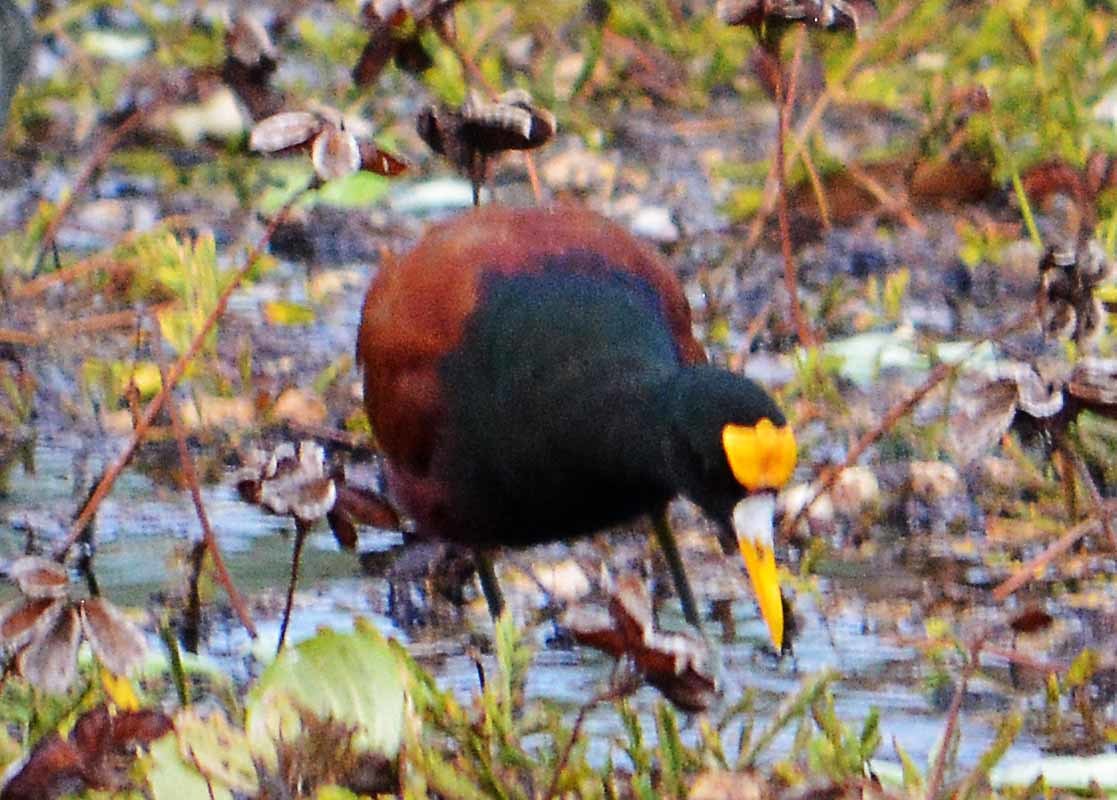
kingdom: Animalia
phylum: Chordata
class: Aves
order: Charadriiformes
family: Jacanidae
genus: Jacana
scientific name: Jacana spinosa
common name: Northern jacana
